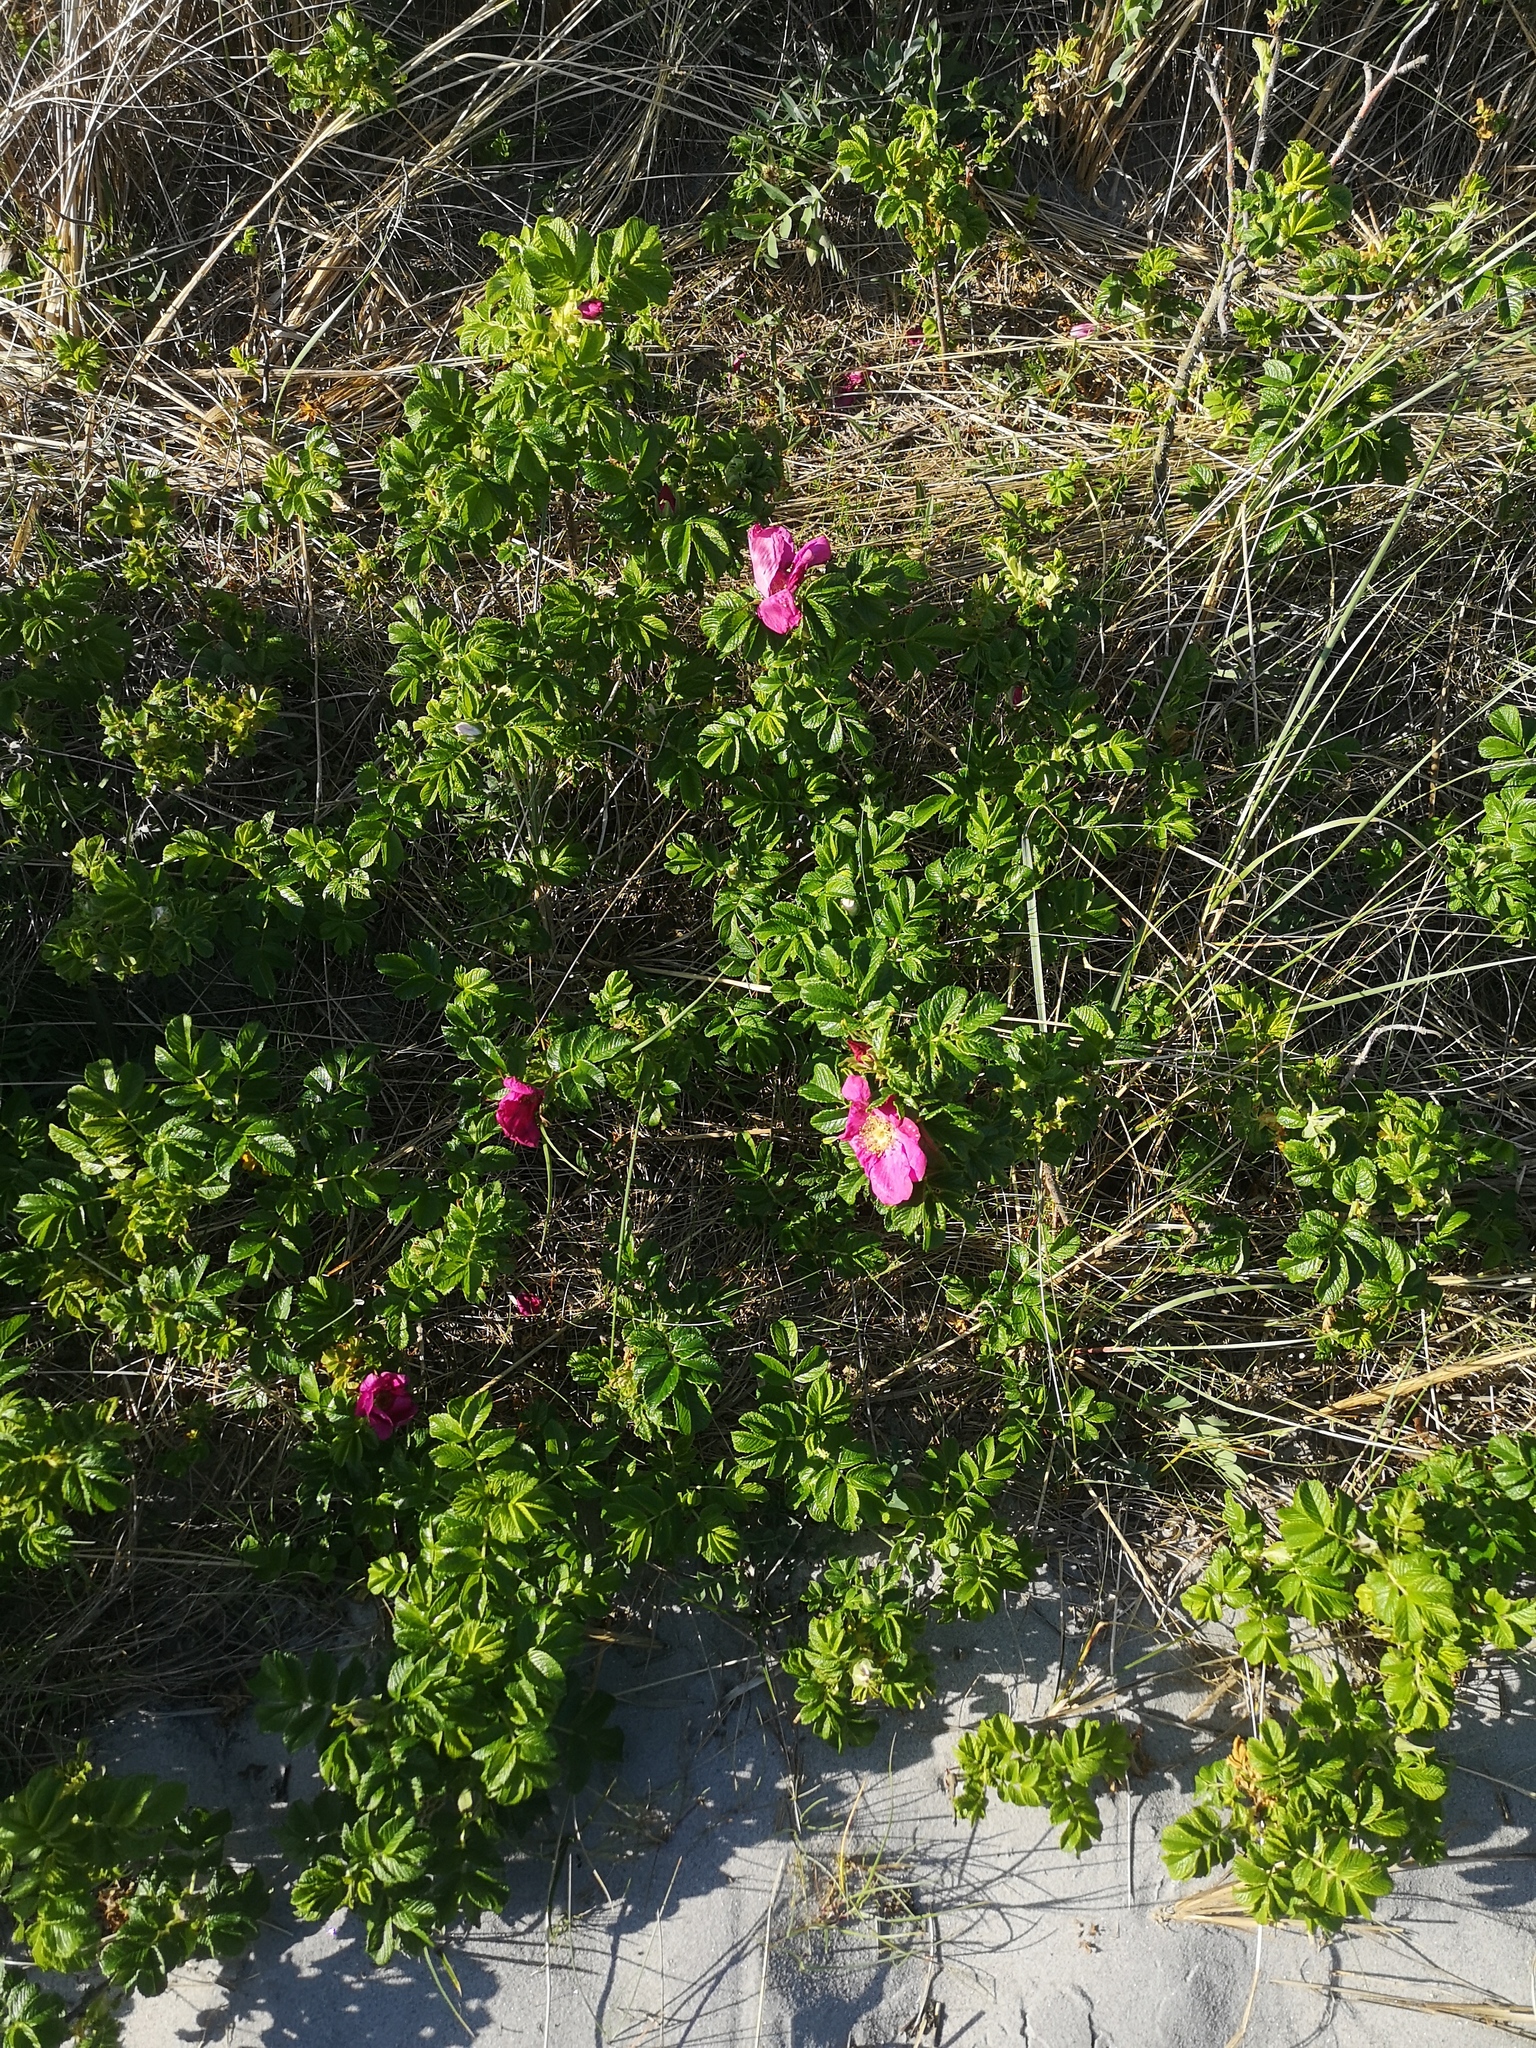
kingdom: Plantae
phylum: Tracheophyta
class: Magnoliopsida
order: Rosales
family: Rosaceae
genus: Rosa
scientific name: Rosa rugosa
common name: Japanese rose
